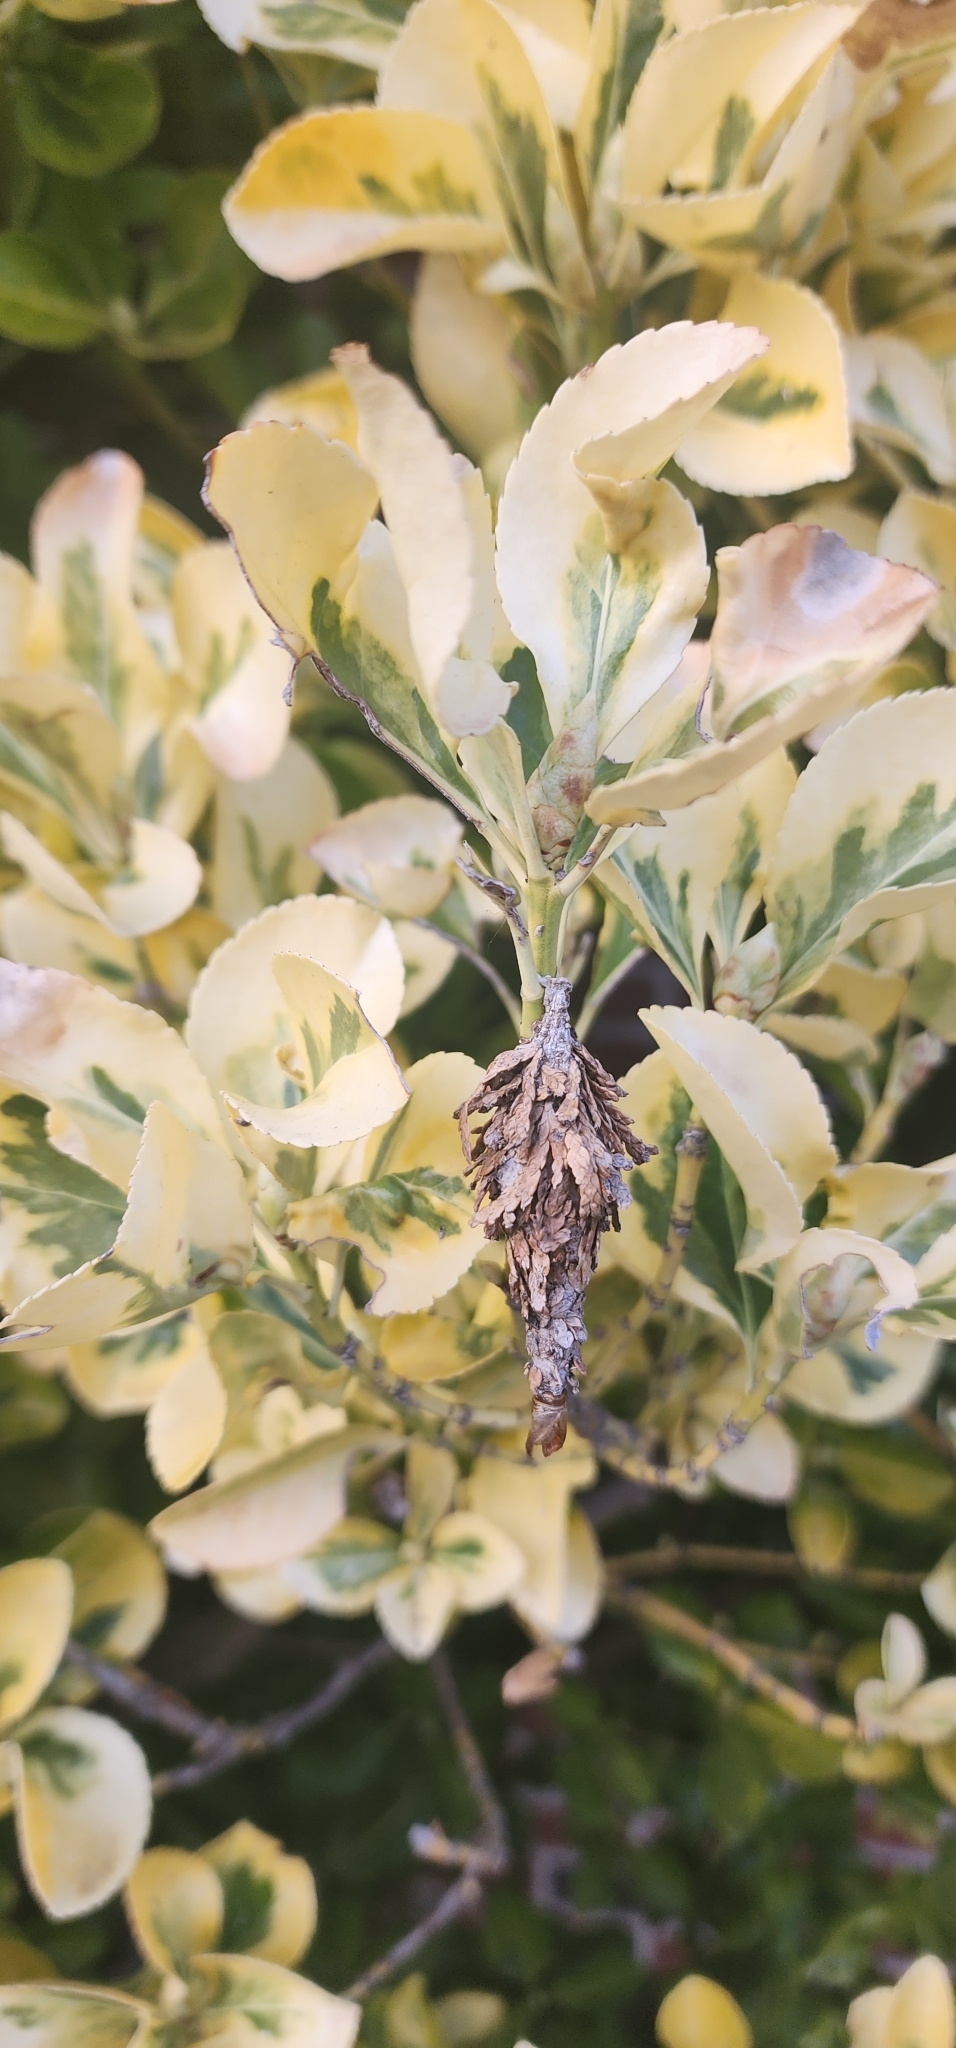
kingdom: Animalia
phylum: Arthropoda
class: Insecta
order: Lepidoptera
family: Psychidae
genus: Thyridopteryx
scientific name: Thyridopteryx ephemeraeformis
